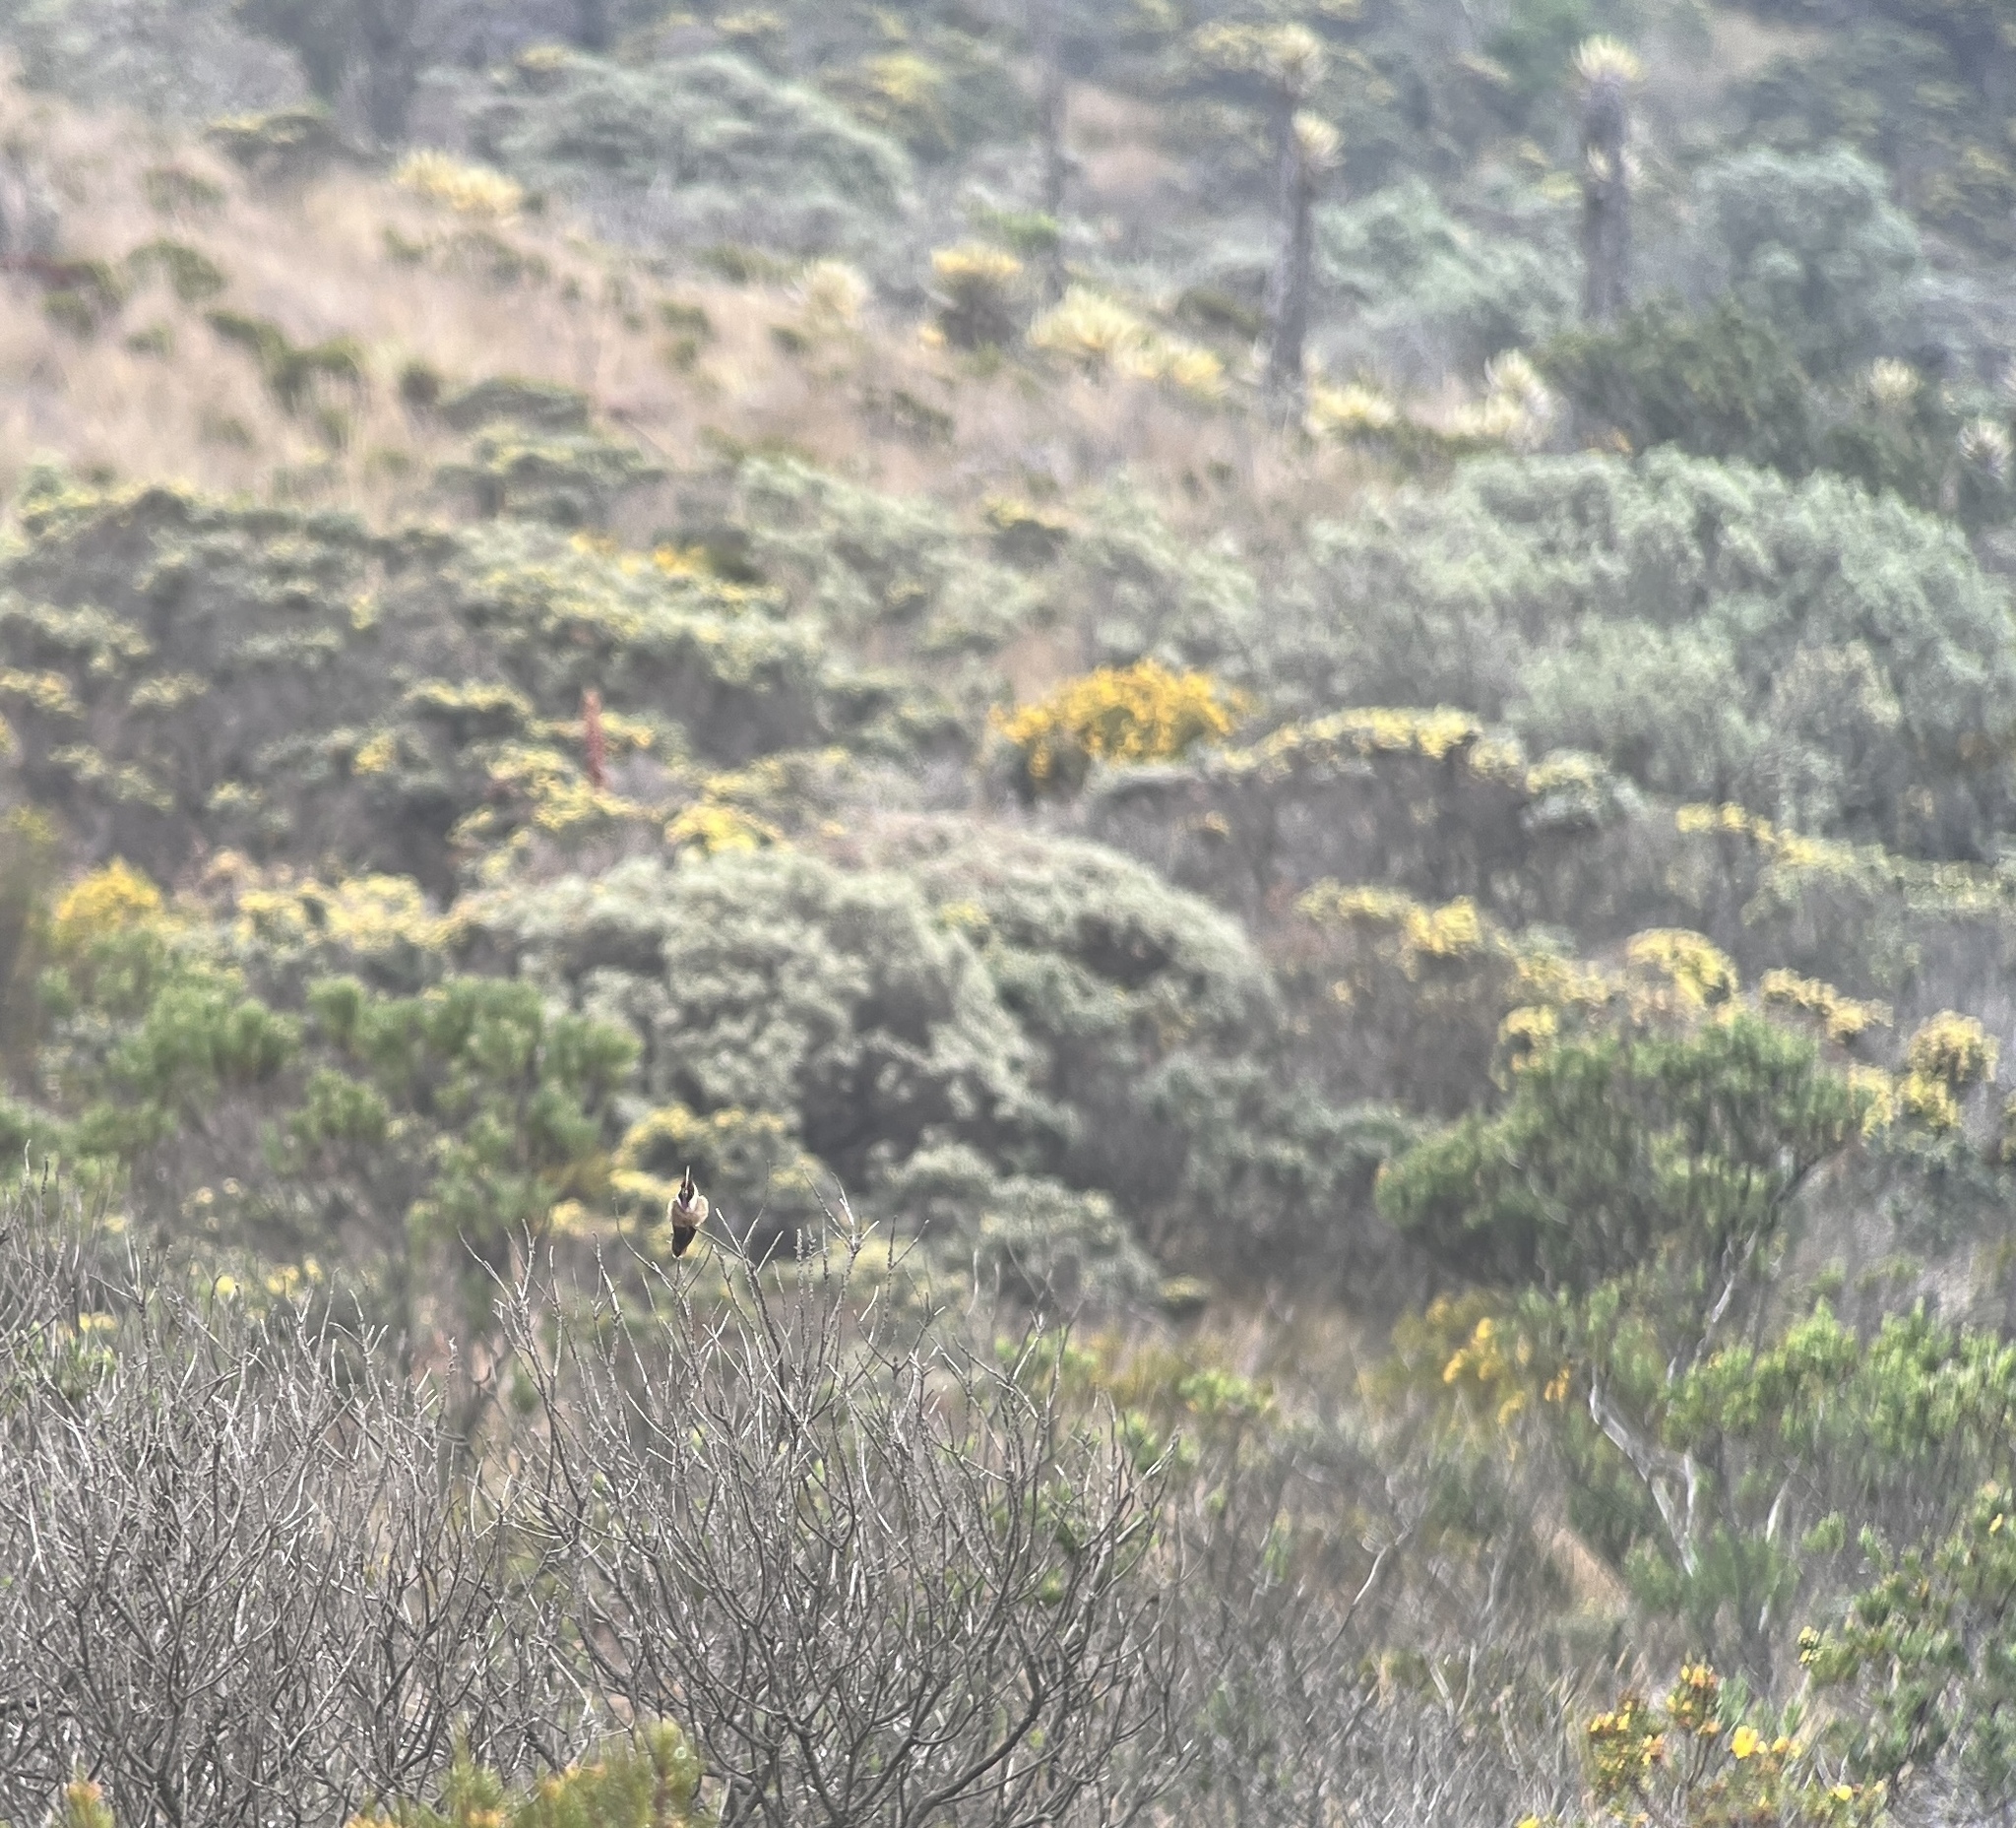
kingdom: Animalia
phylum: Chordata
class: Aves
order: Apodiformes
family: Trochilidae
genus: Oxypogon
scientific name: Oxypogon stuebelii
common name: Buffy helmetcrest
